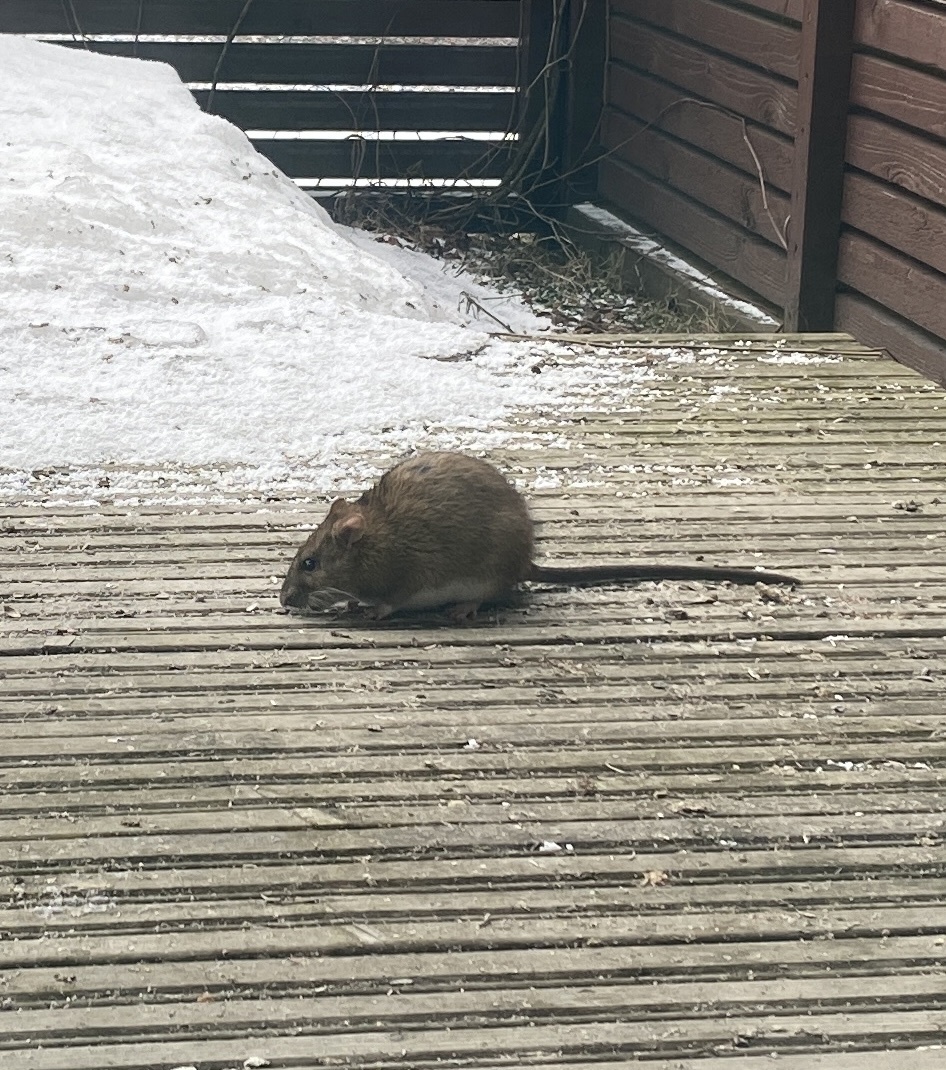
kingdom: Animalia
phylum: Chordata
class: Mammalia
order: Rodentia
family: Muridae
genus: Rattus
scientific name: Rattus norvegicus
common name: Brown rat
